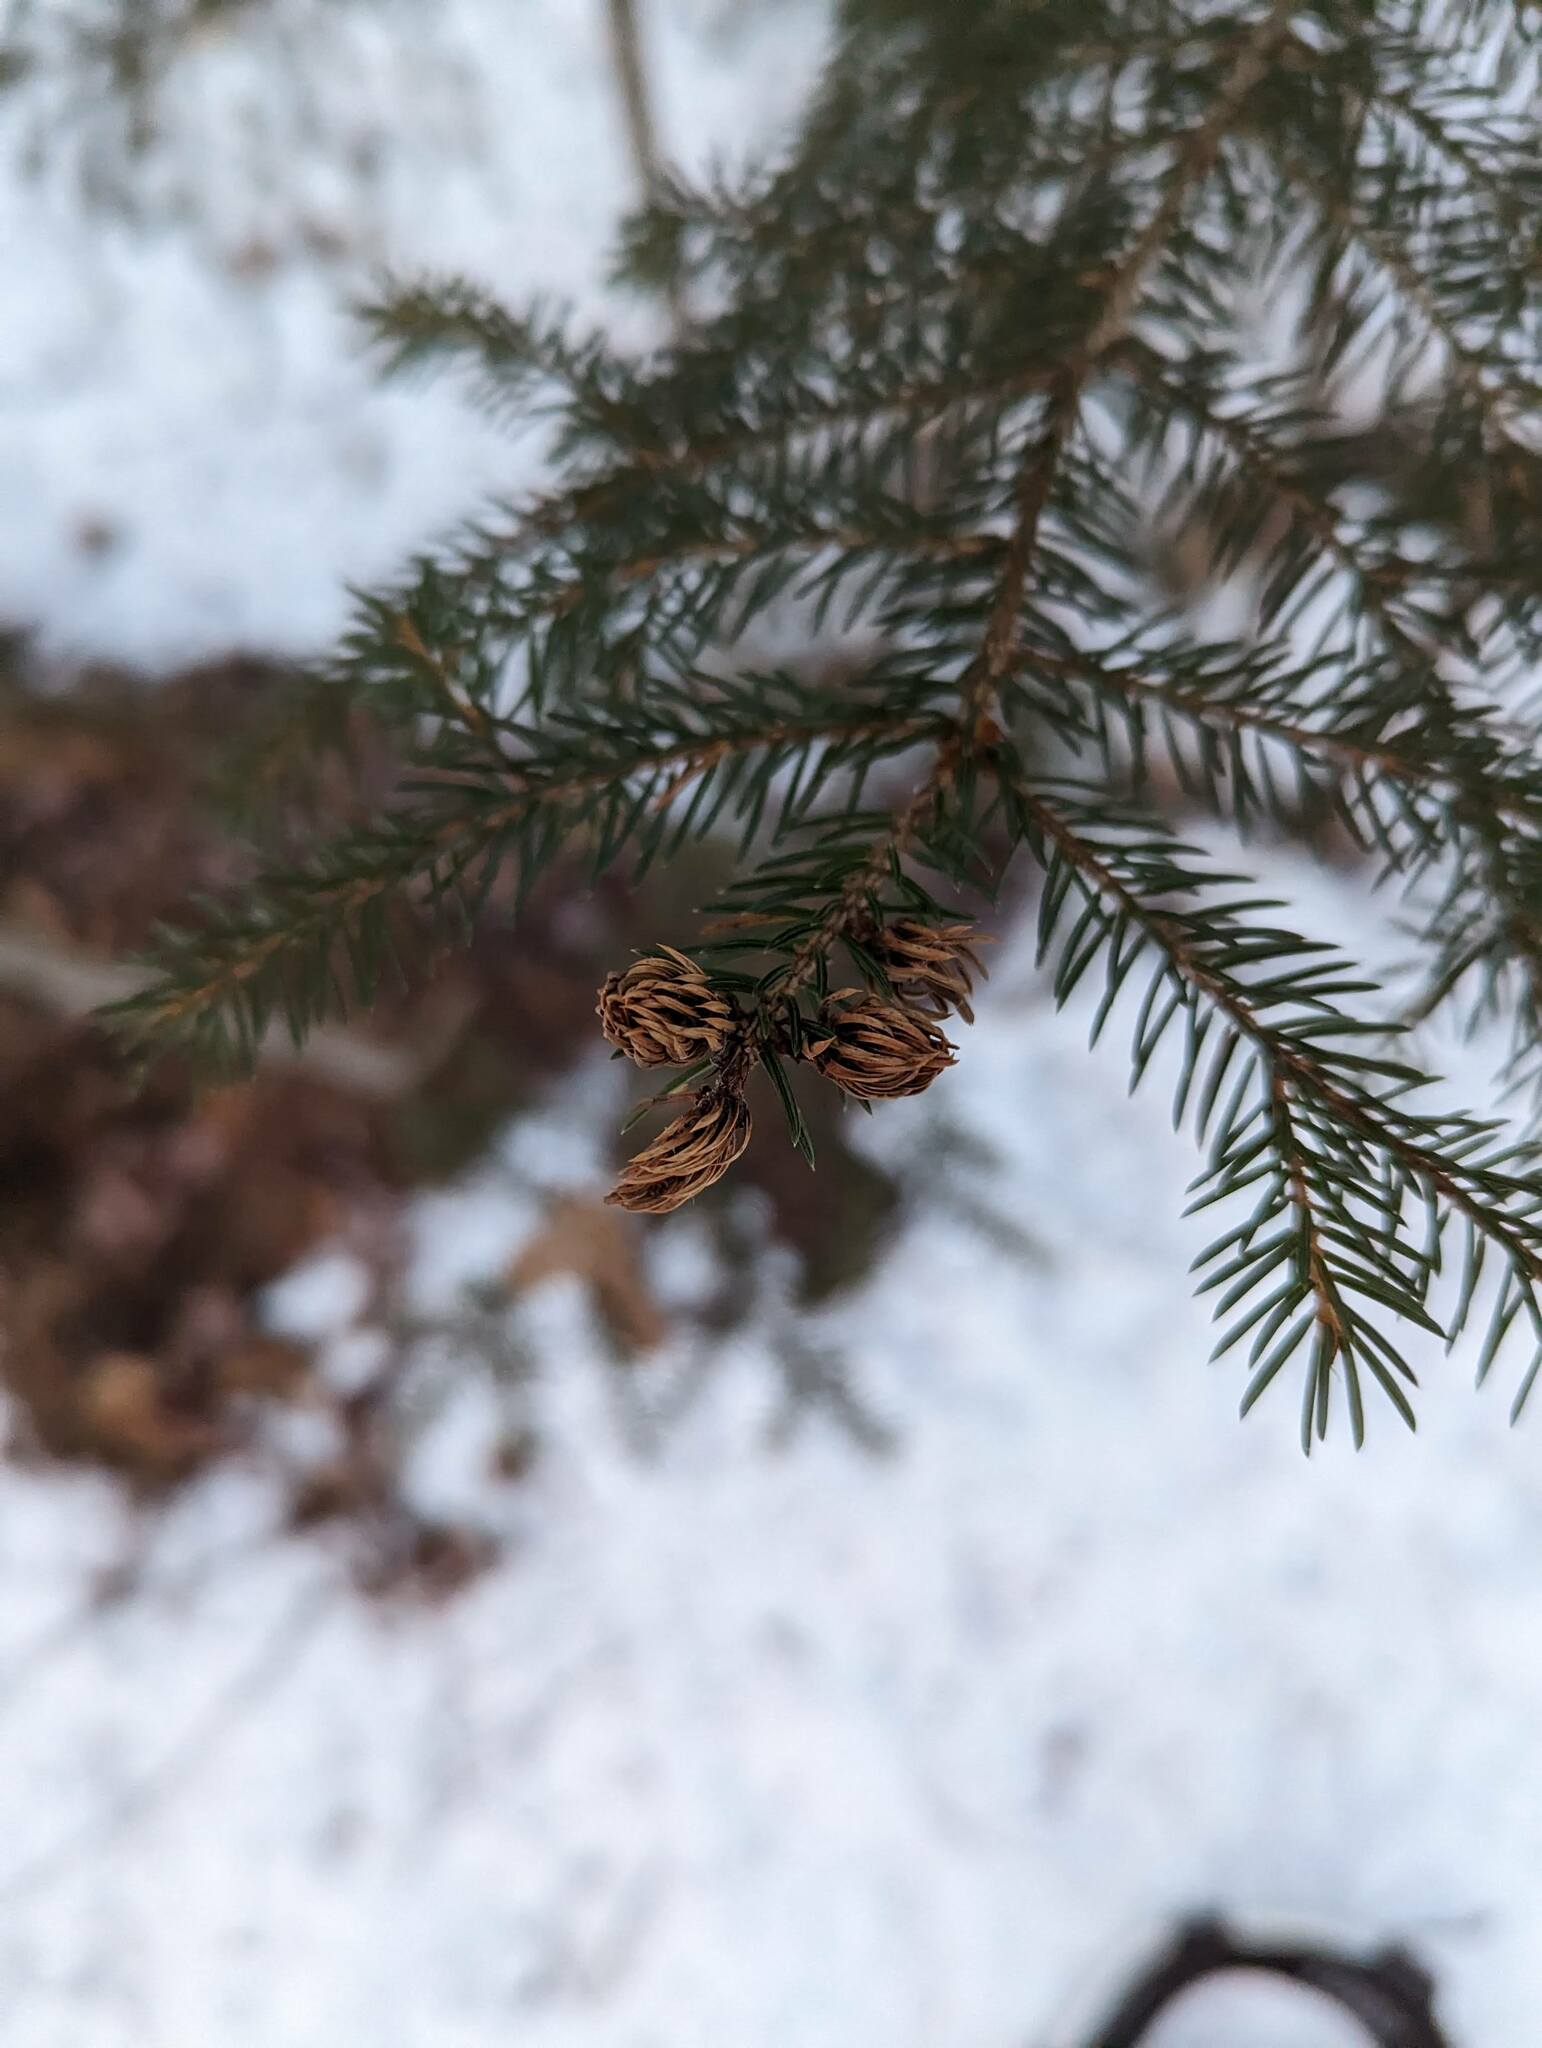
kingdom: Plantae
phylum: Tracheophyta
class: Pinopsida
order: Pinales
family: Pinaceae
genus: Picea
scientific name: Picea rubens
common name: Red spruce
